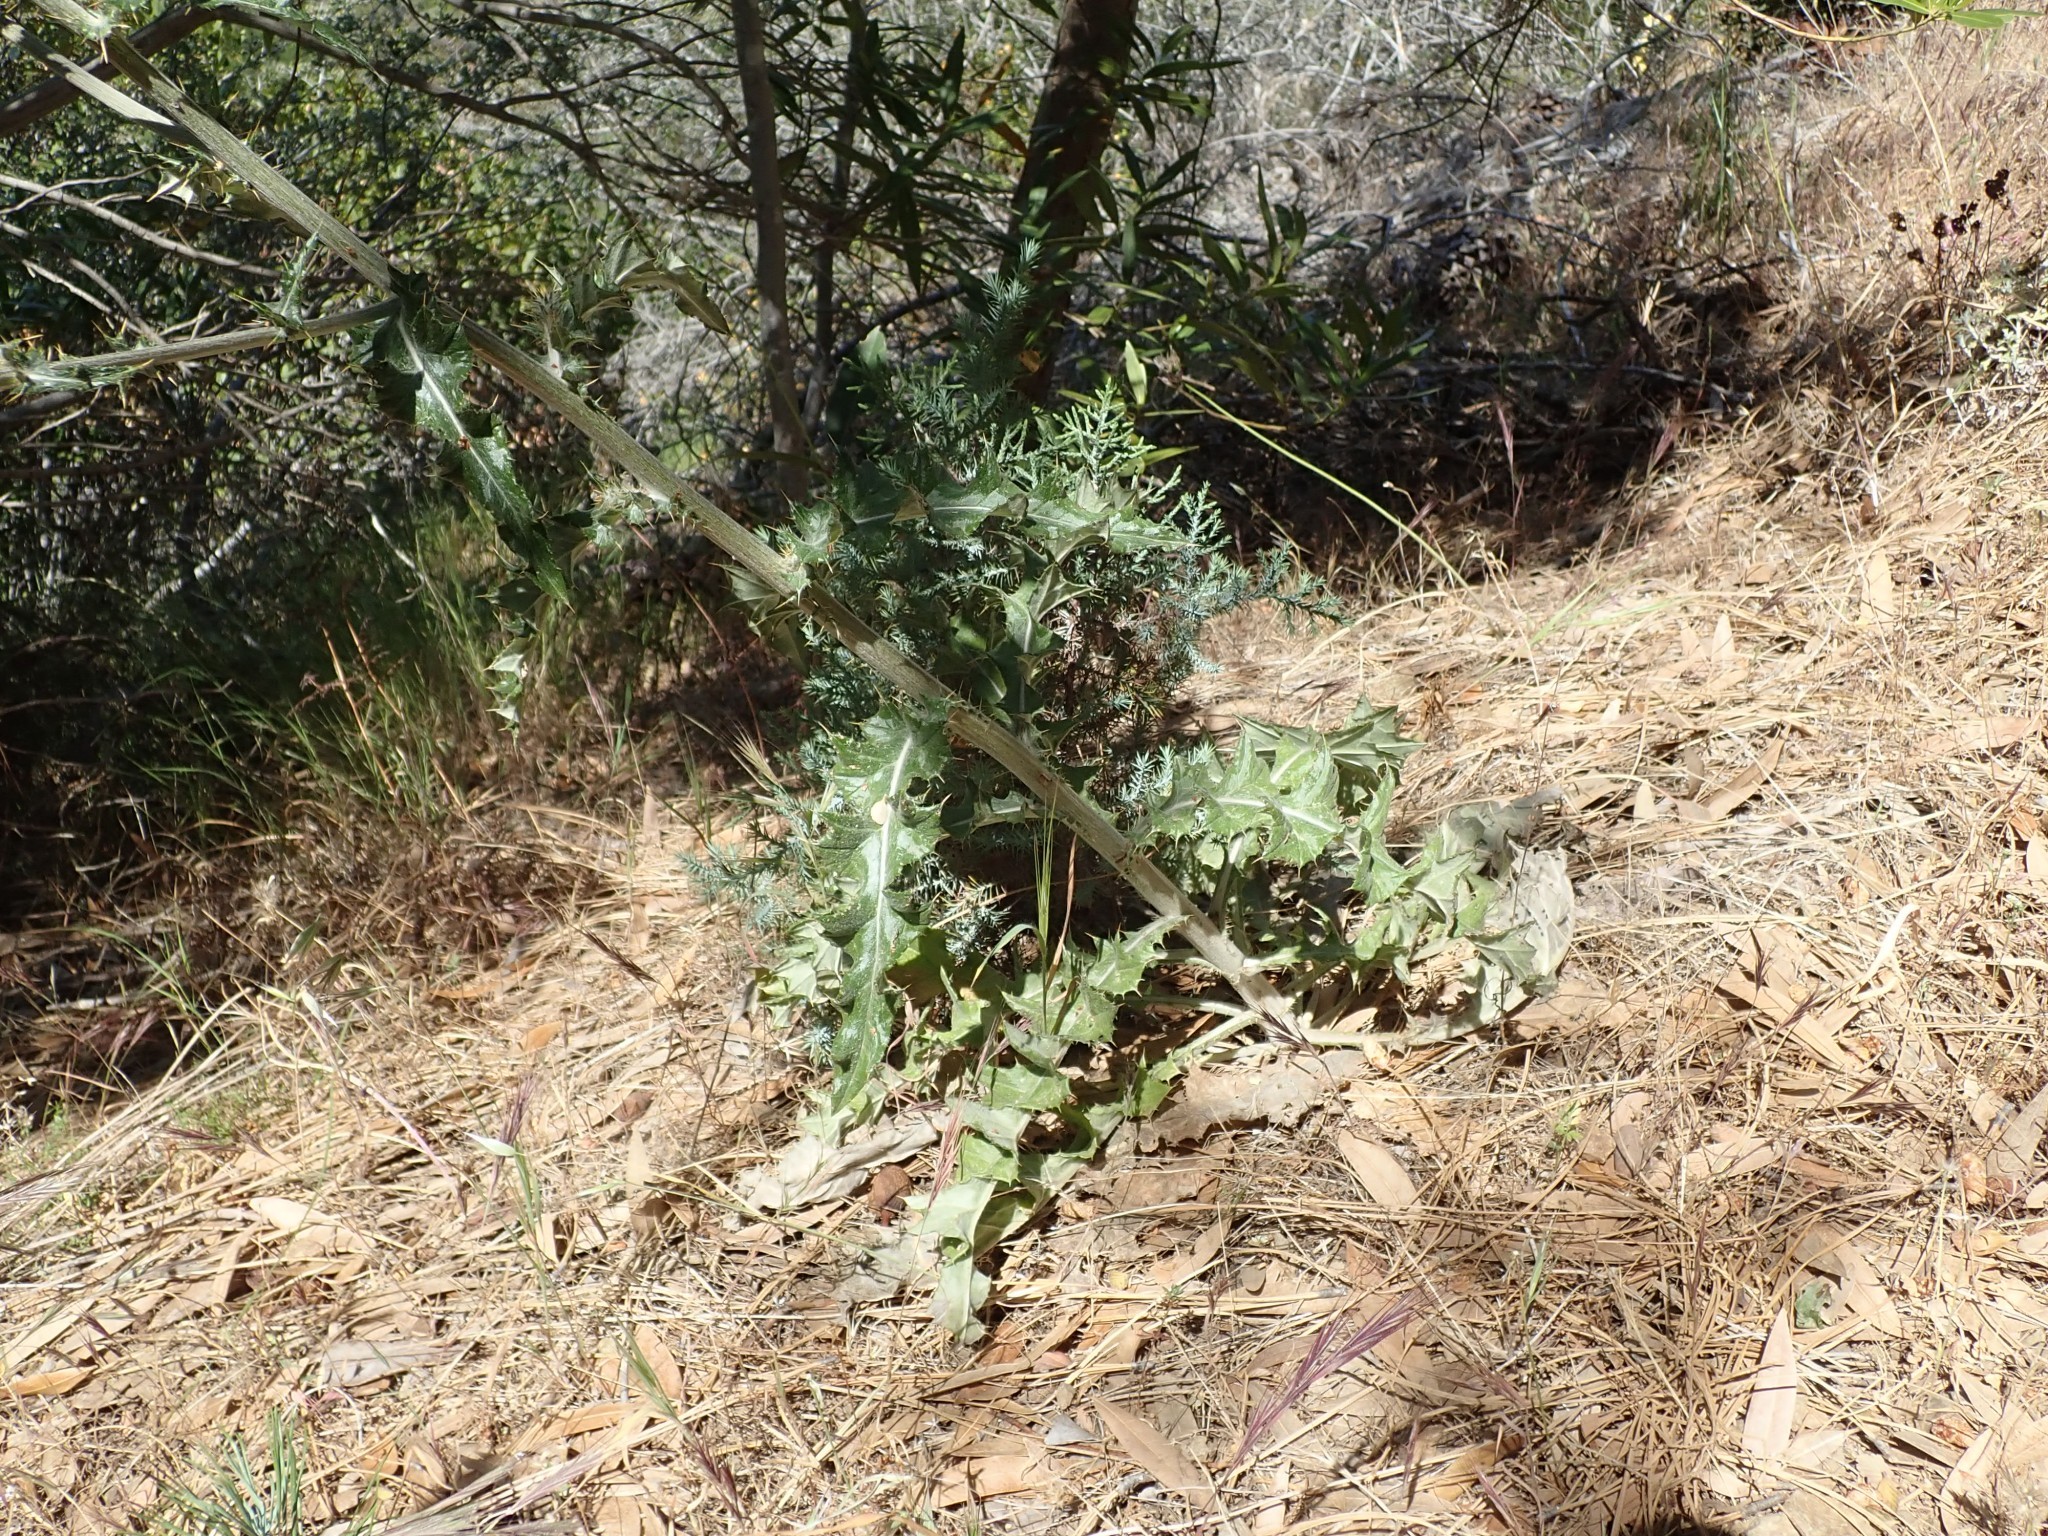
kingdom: Plantae
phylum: Tracheophyta
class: Magnoliopsida
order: Asterales
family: Asteraceae
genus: Cirsium
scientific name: Cirsium occidentale
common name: Western thistle
